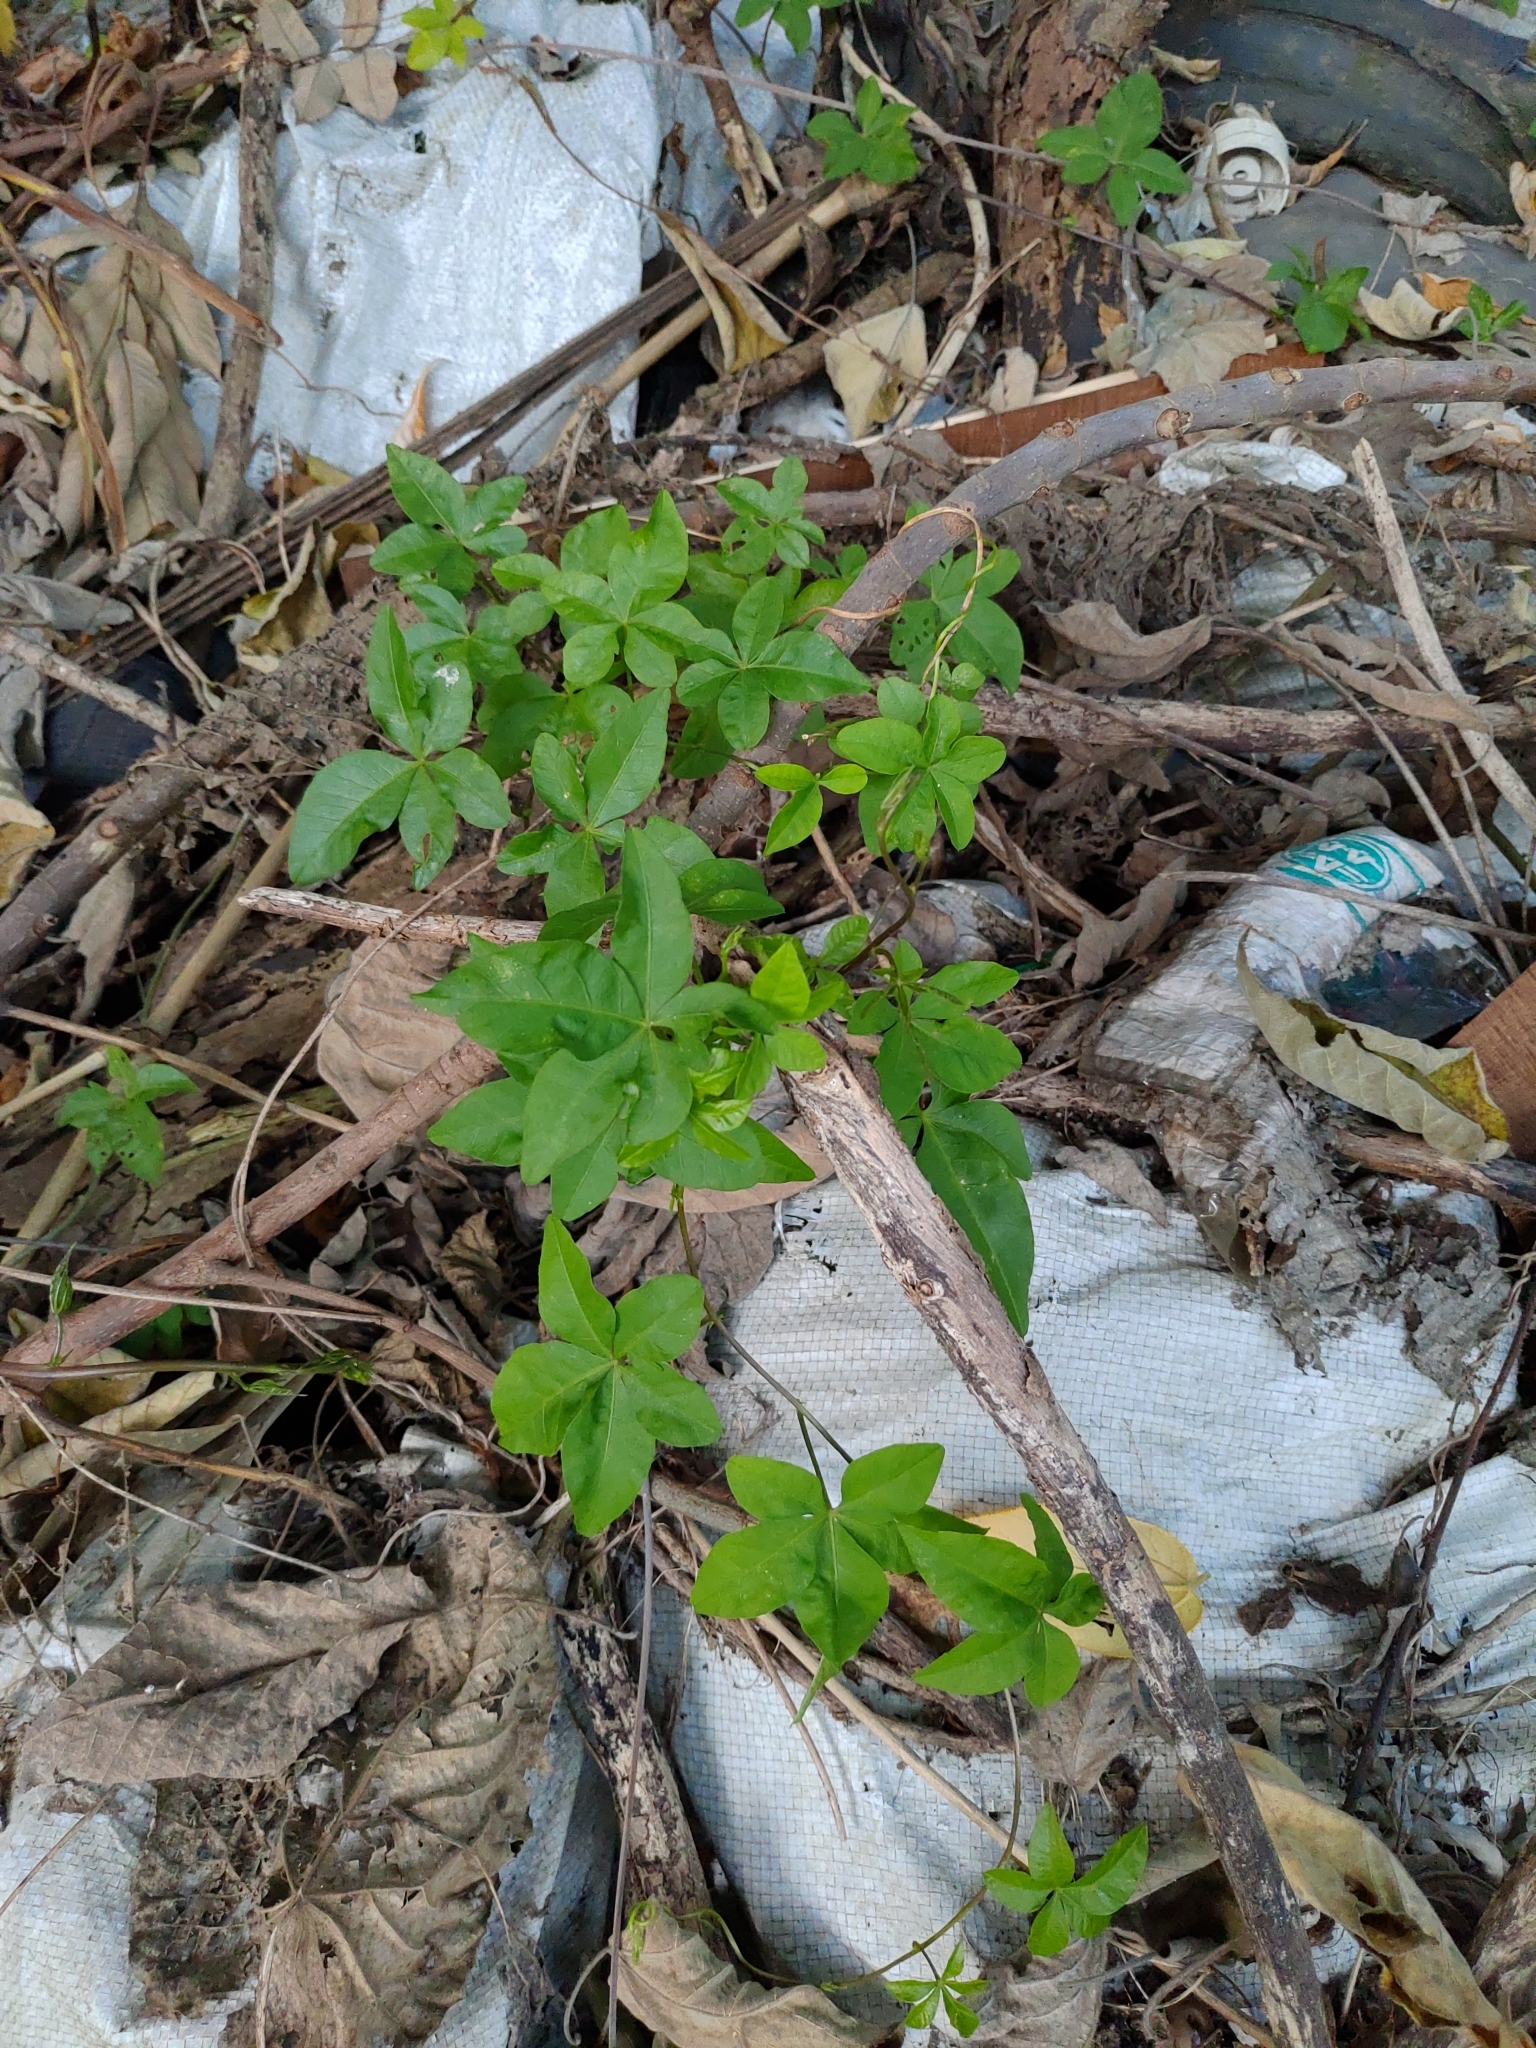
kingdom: Plantae
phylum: Tracheophyta
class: Magnoliopsida
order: Solanales
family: Convolvulaceae
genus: Ipomoea
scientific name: Ipomoea cairica
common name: Mile a minute vine
